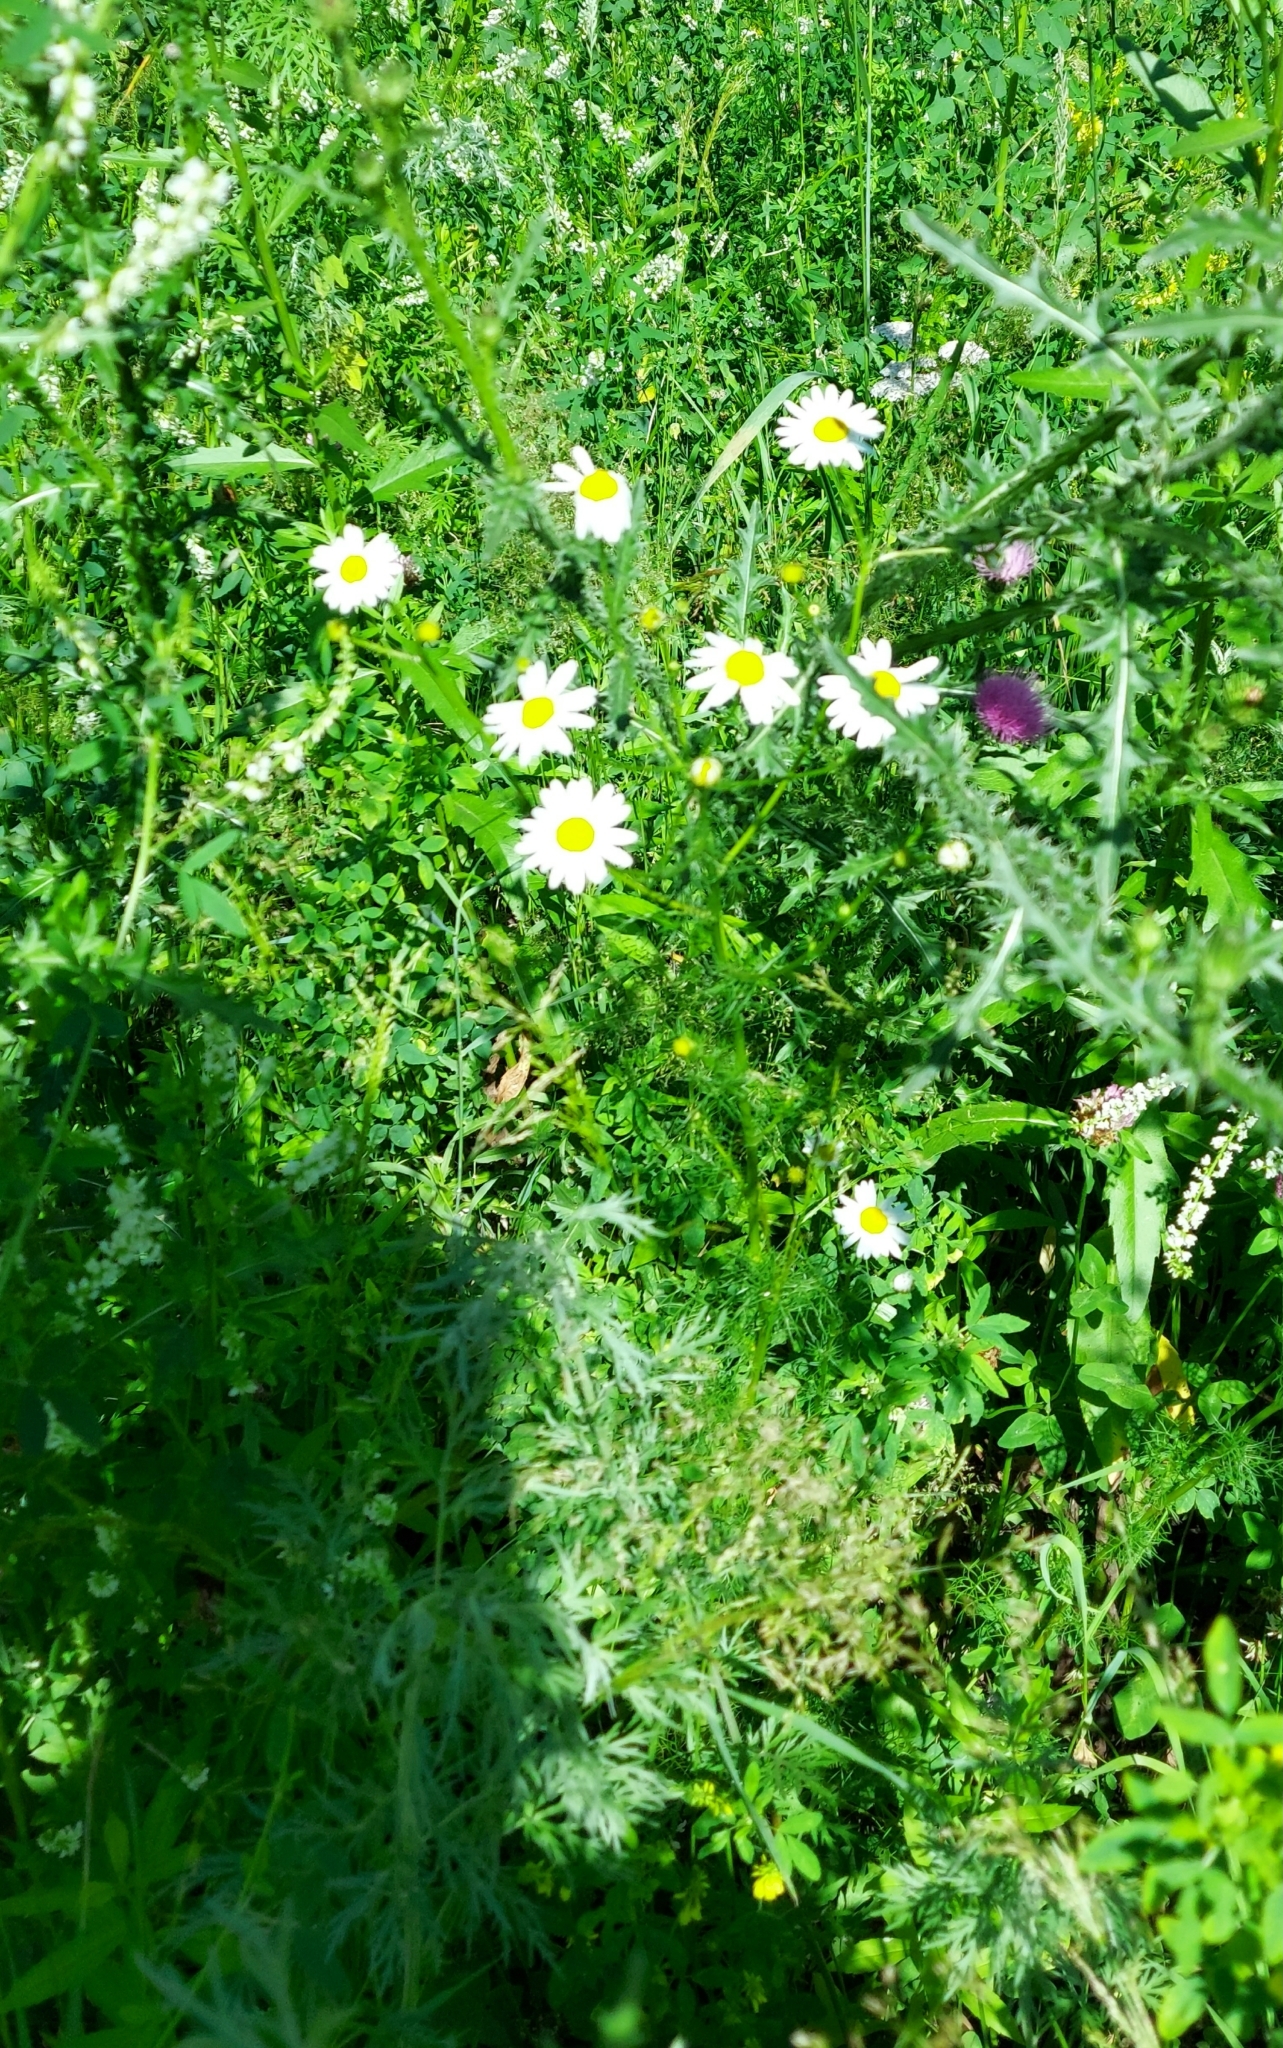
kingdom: Plantae
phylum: Tracheophyta
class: Magnoliopsida
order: Asterales
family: Asteraceae
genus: Tripleurospermum
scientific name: Tripleurospermum inodorum
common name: Scentless mayweed
